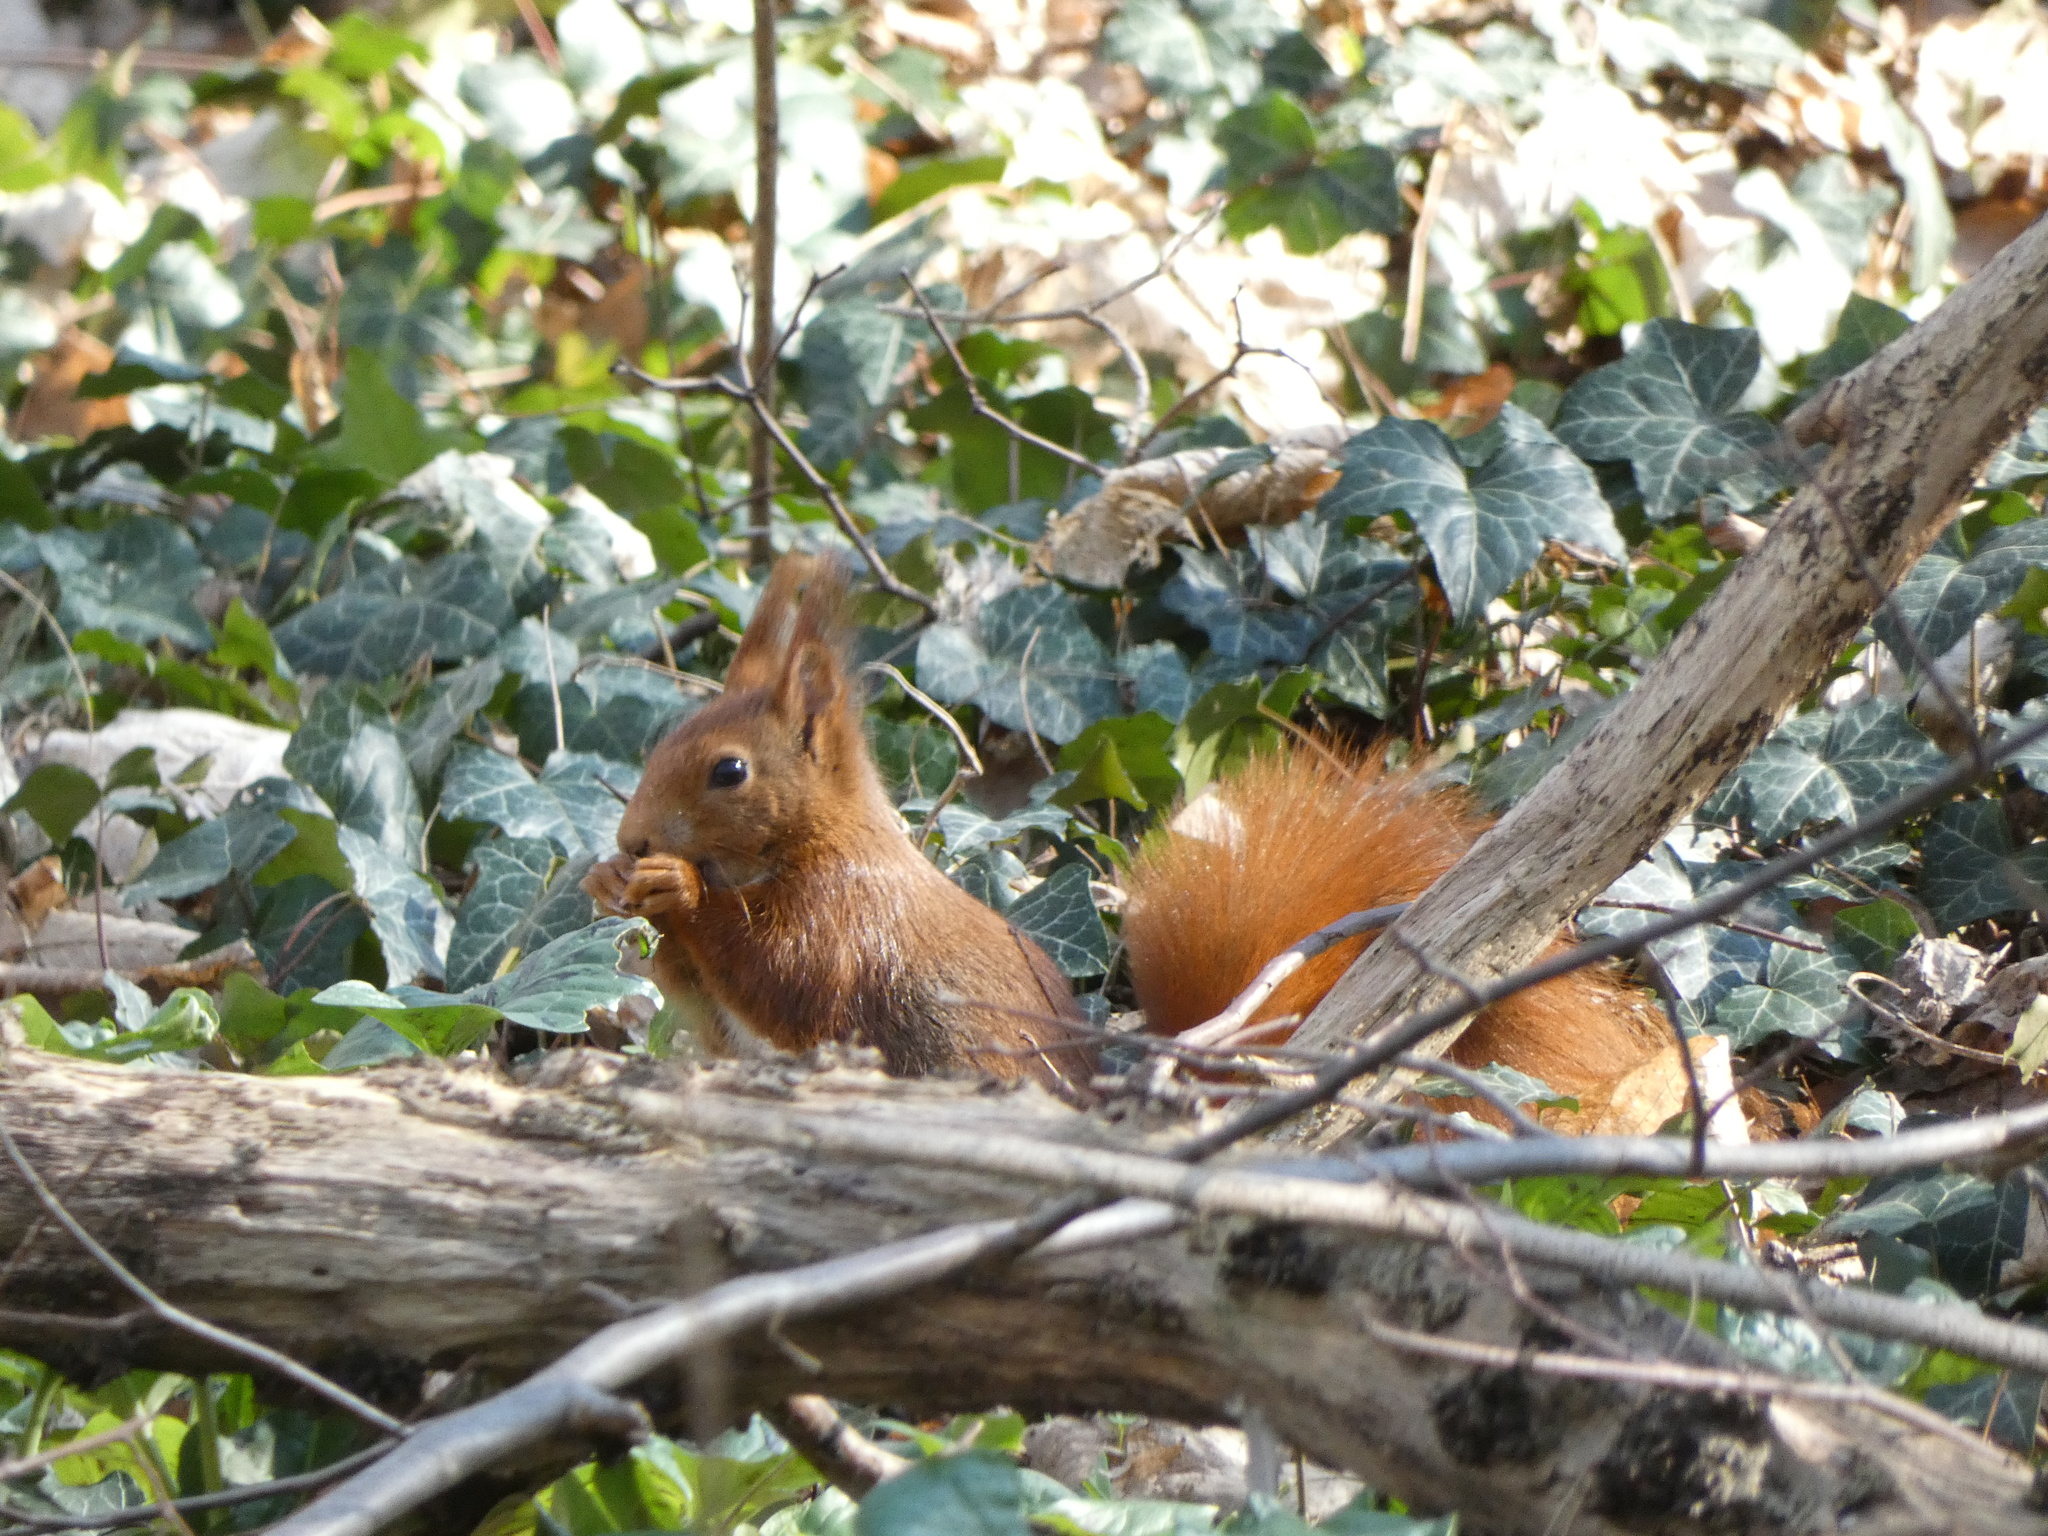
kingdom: Animalia
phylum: Chordata
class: Mammalia
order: Rodentia
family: Sciuridae
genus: Sciurus
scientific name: Sciurus vulgaris
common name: Eurasian red squirrel
